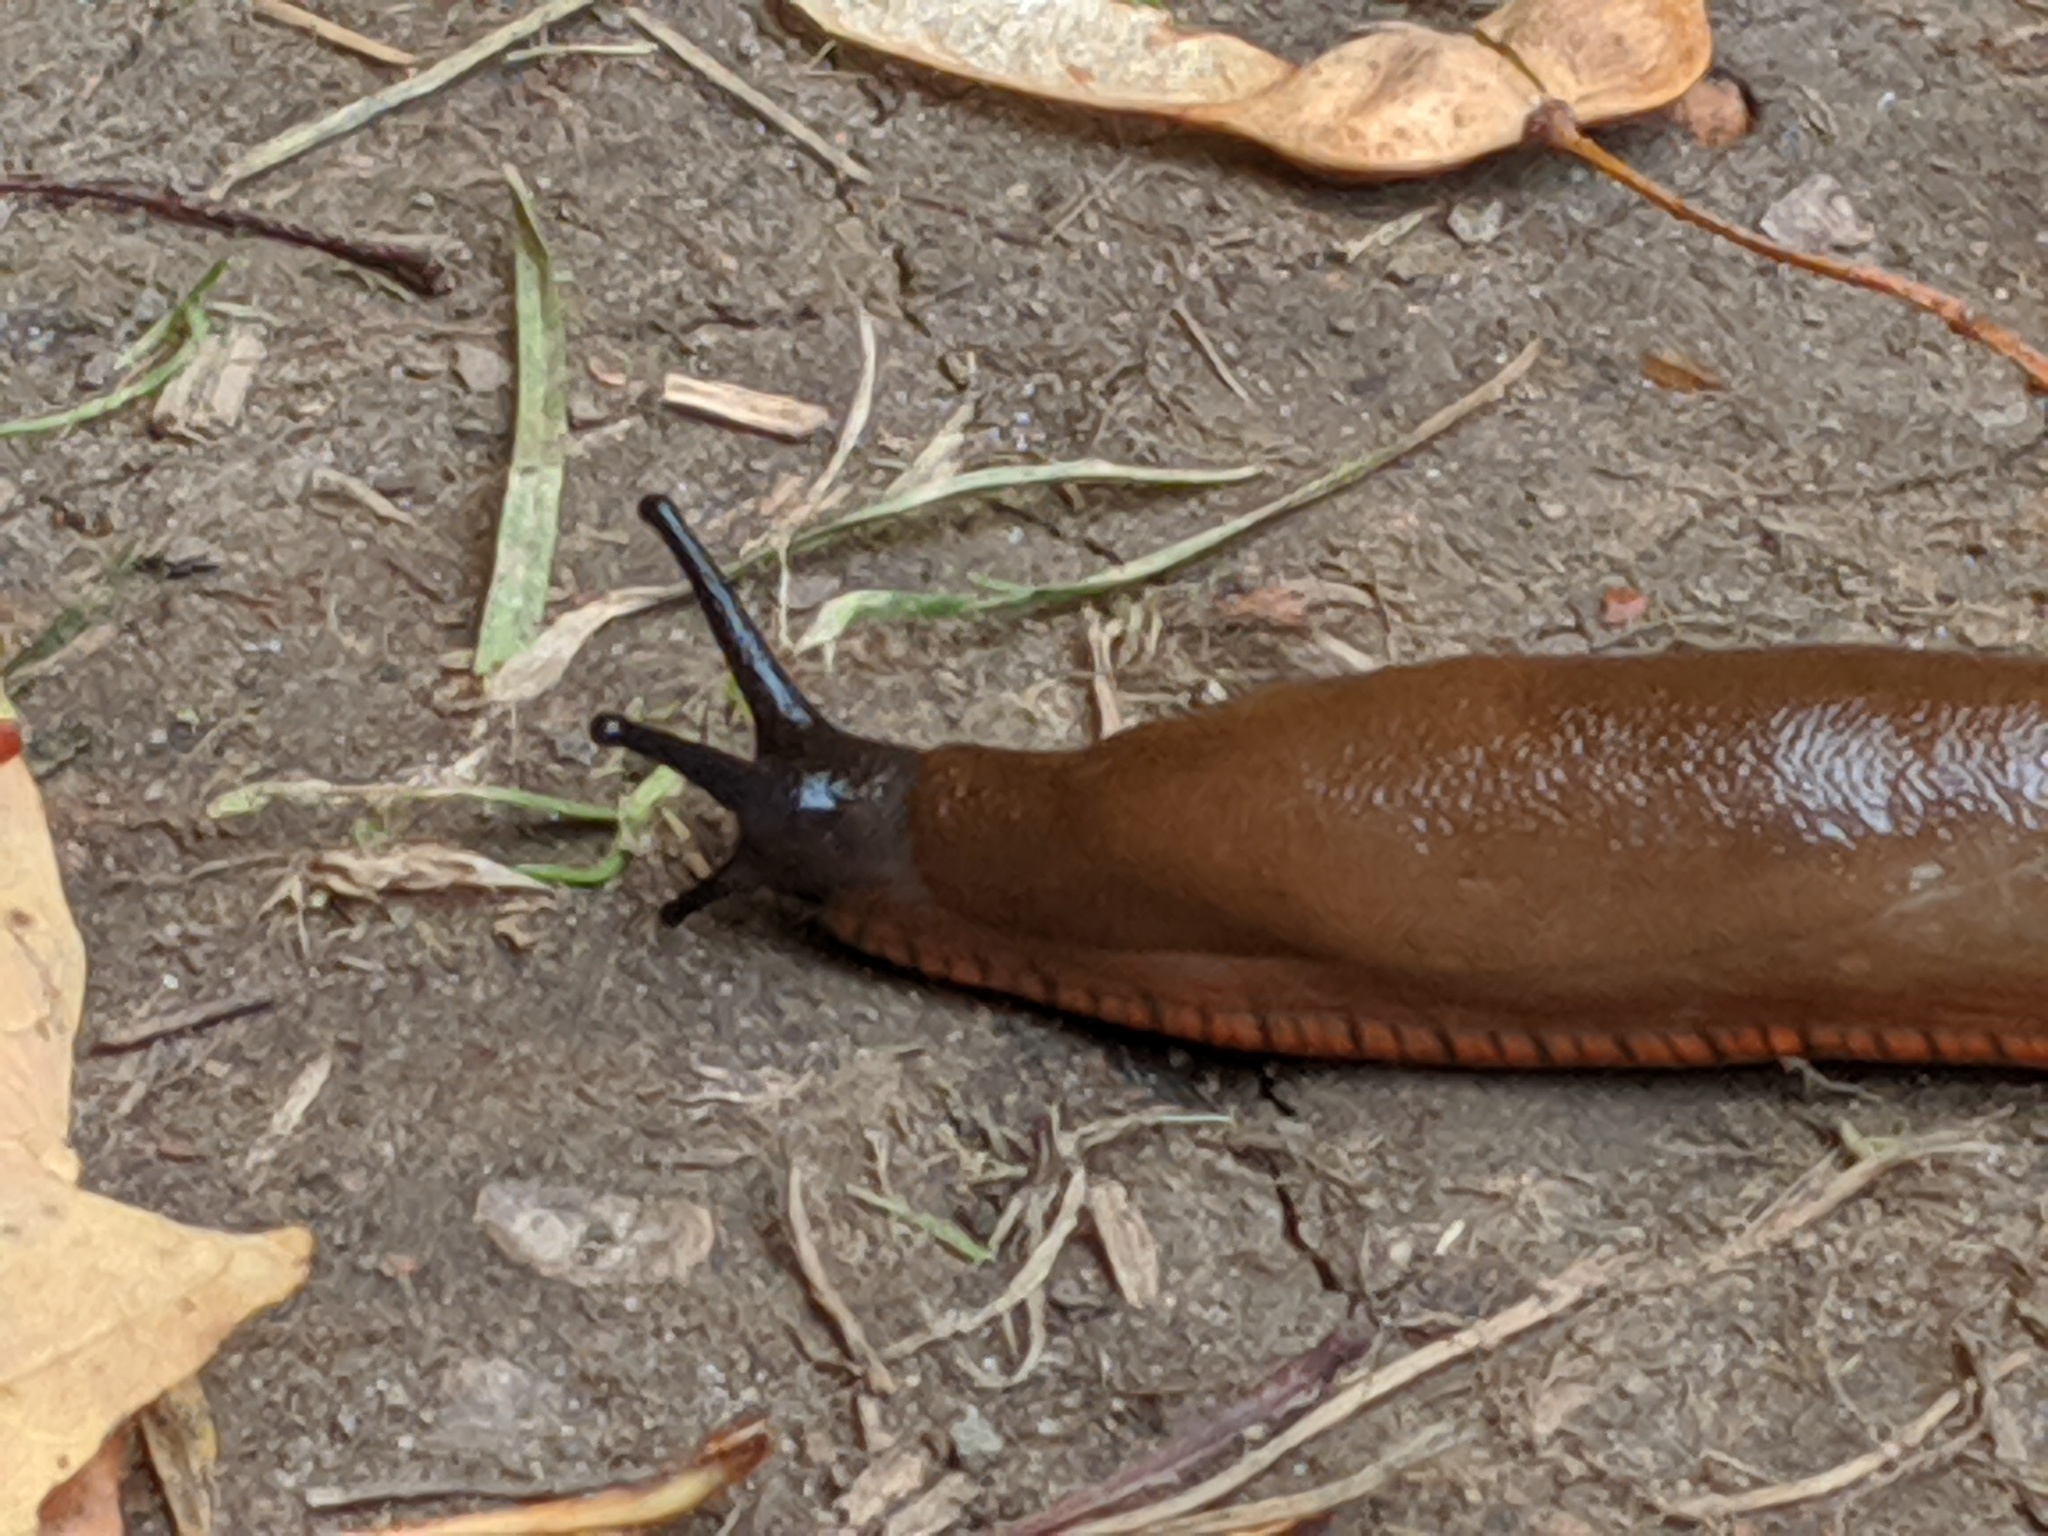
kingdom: Animalia
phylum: Mollusca
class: Gastropoda
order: Stylommatophora
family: Arionidae
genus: Arion
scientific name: Arion rufus
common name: Chocolate arion
